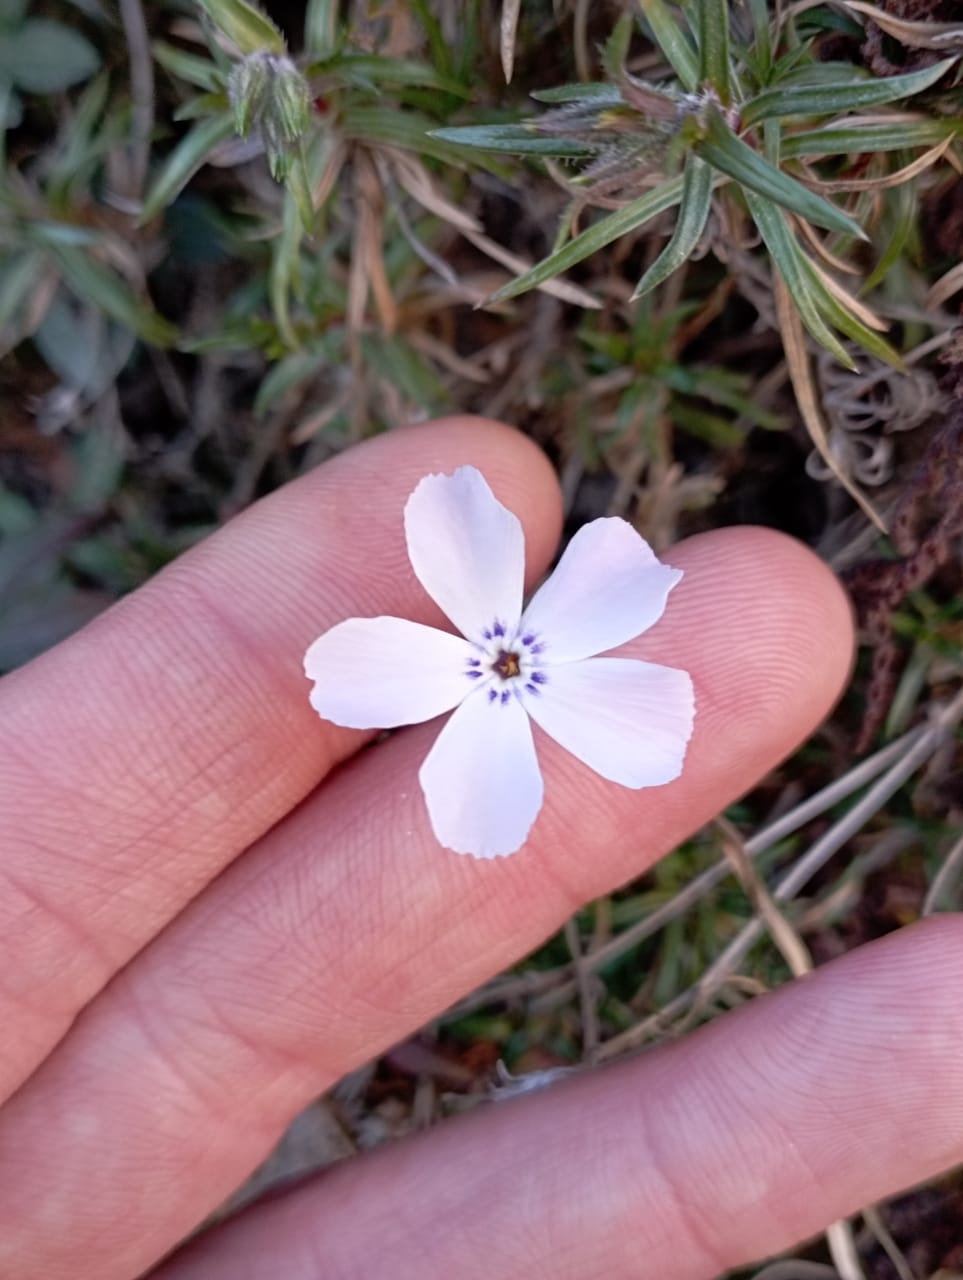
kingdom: Plantae
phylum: Tracheophyta
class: Magnoliopsida
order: Ericales
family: Polemoniaceae
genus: Phlox
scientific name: Phlox subulata
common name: Moss phlox
